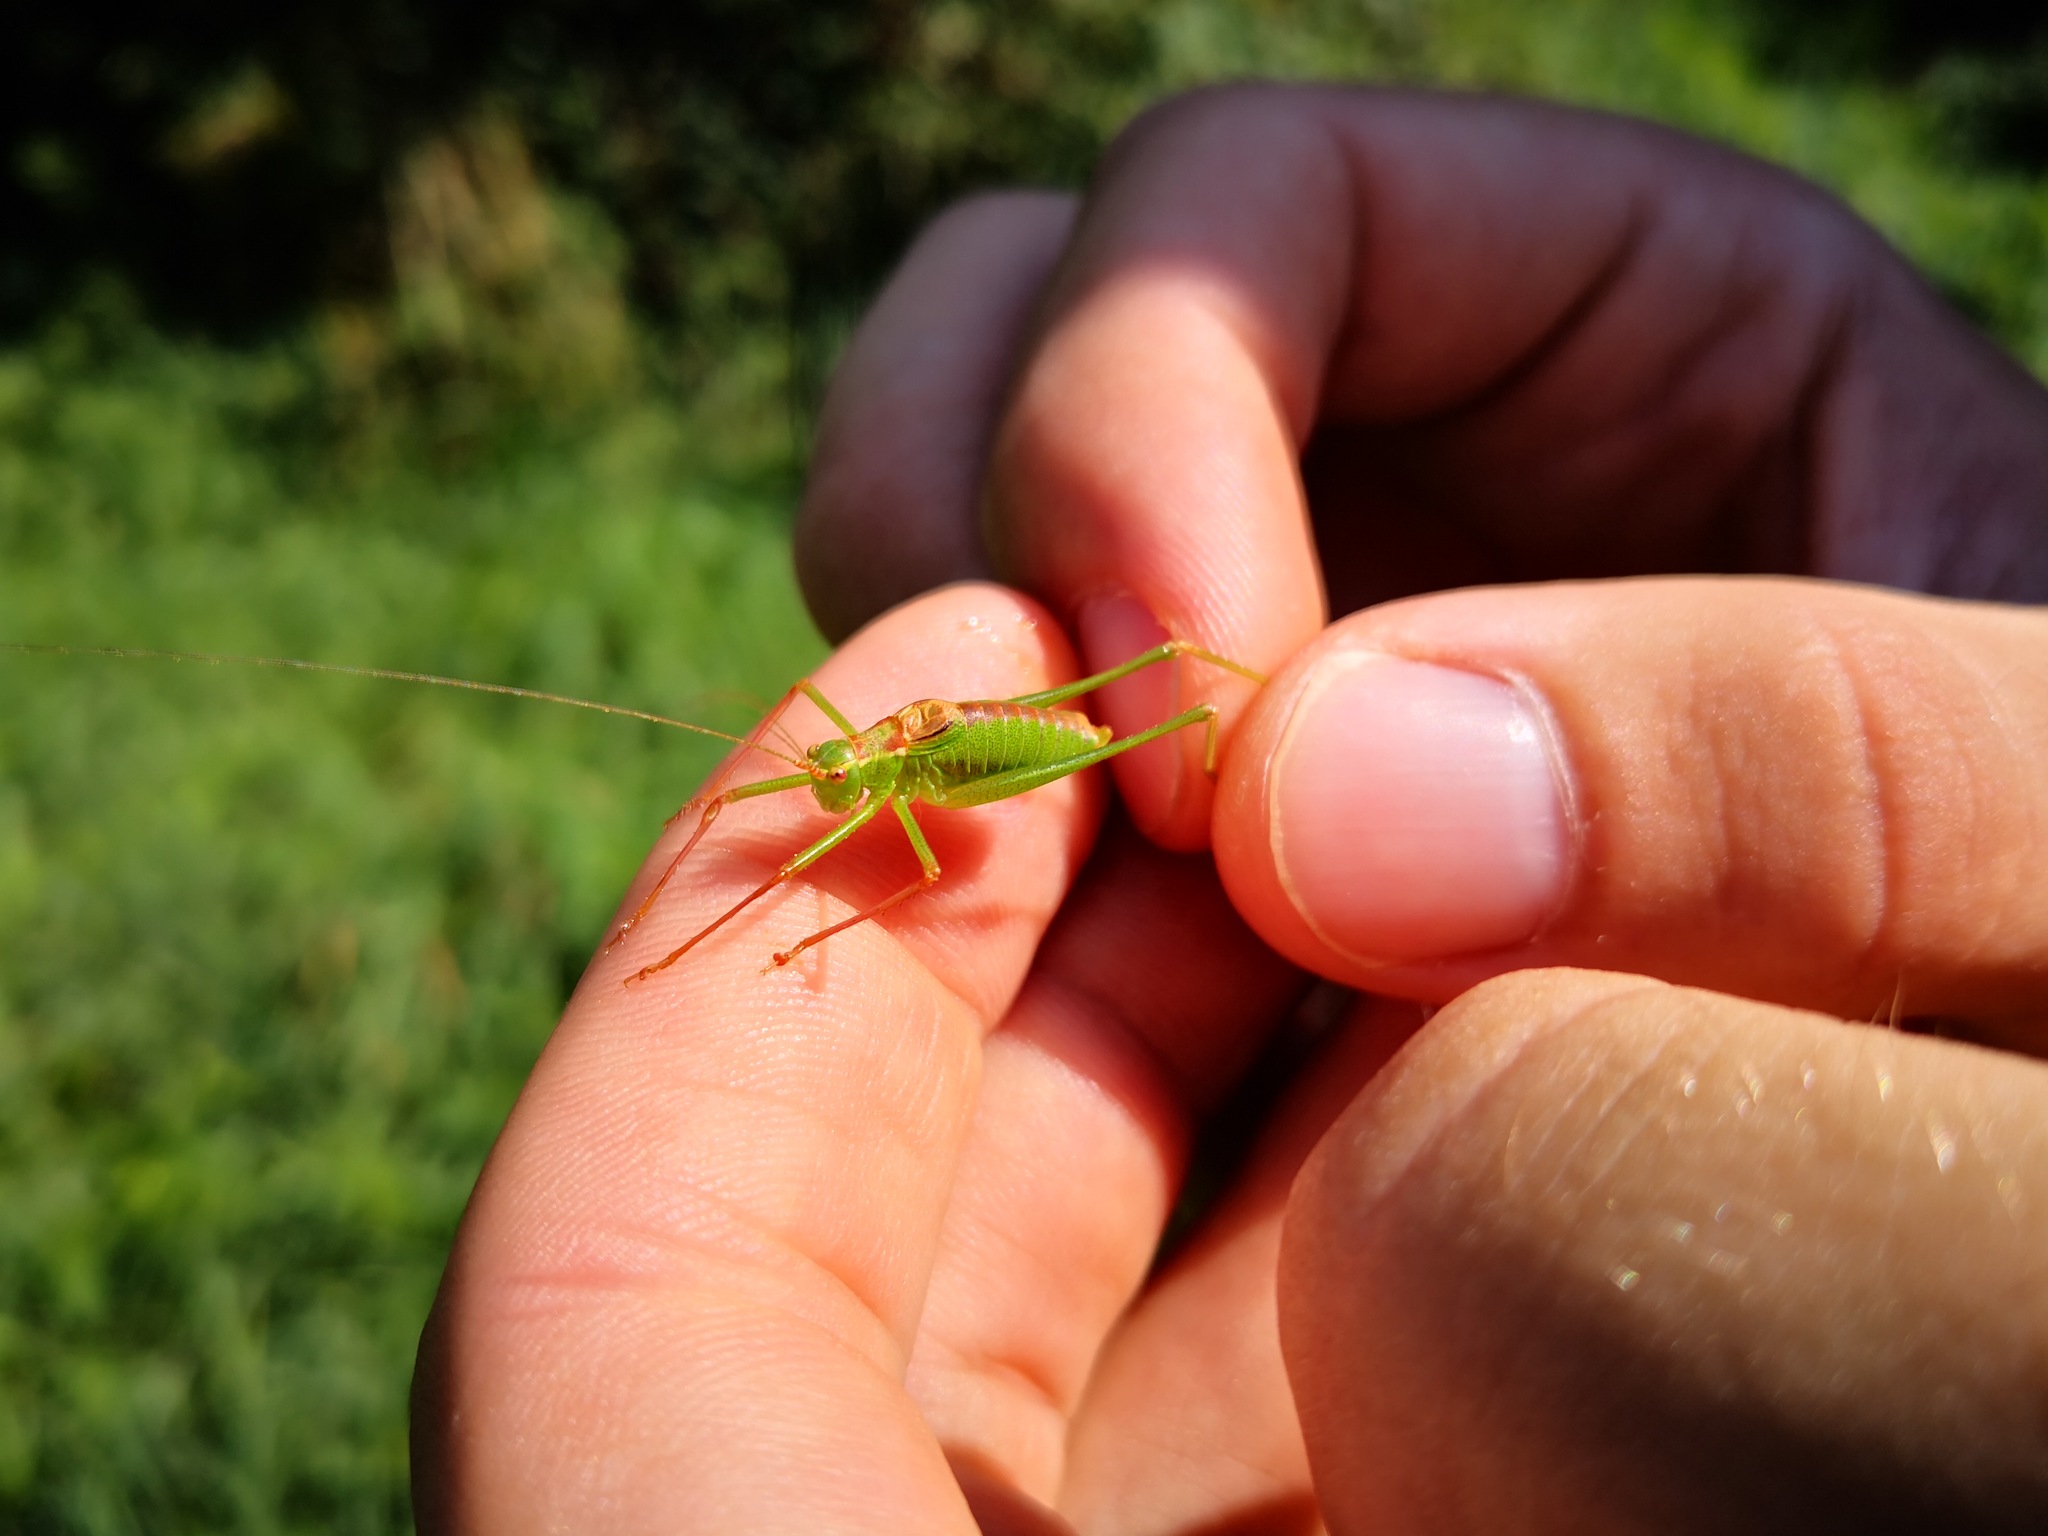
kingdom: Animalia
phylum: Arthropoda
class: Insecta
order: Orthoptera
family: Tettigoniidae
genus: Leptophyes
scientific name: Leptophyes punctatissima
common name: Speckled bush-cricket
